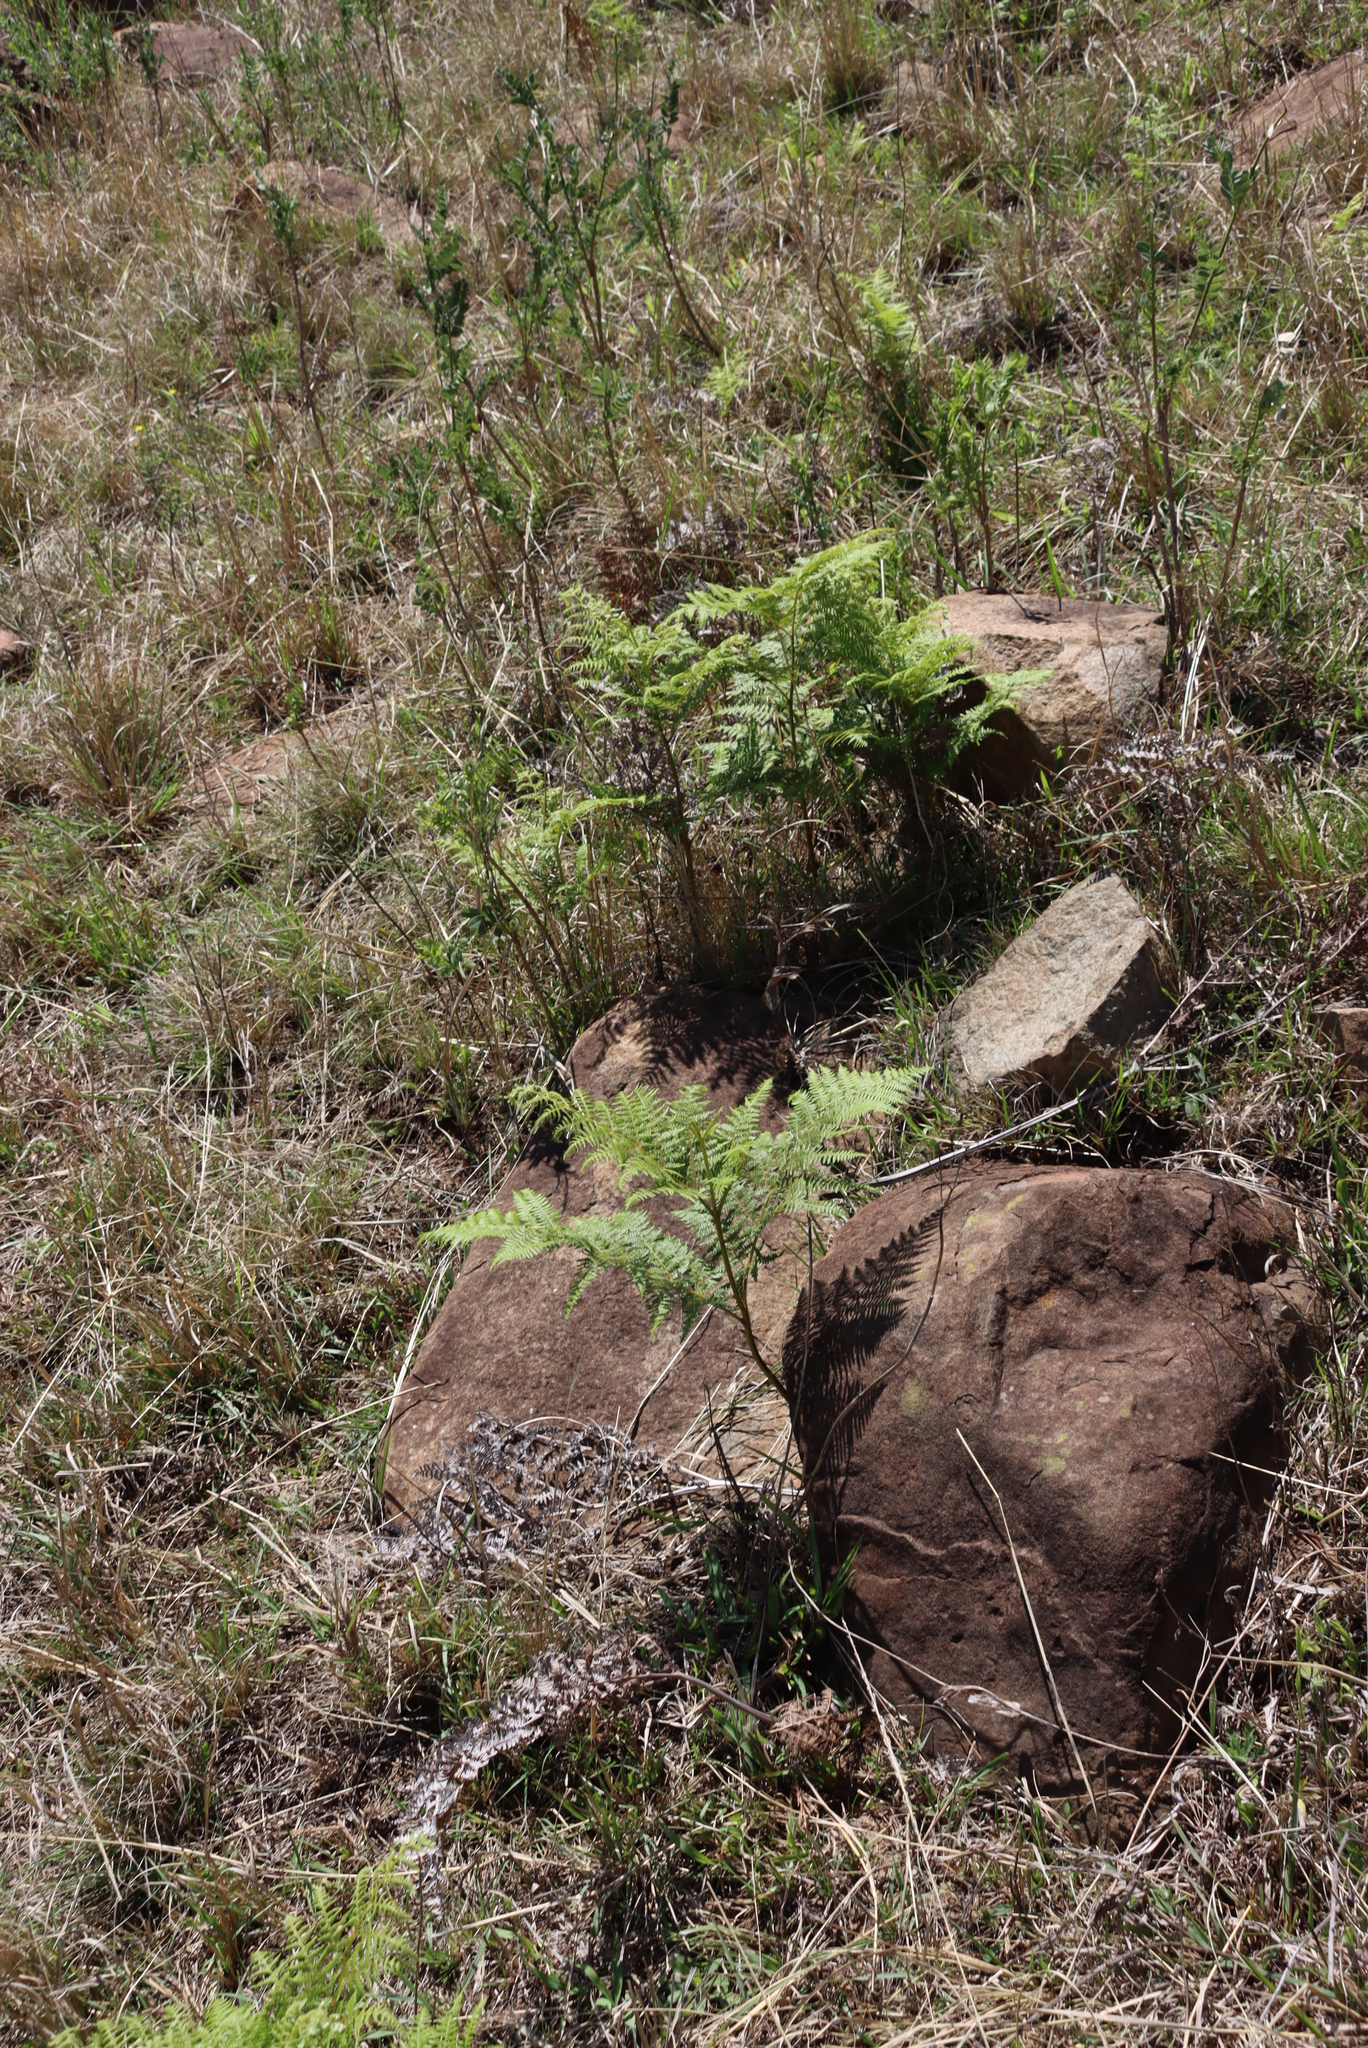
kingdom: Plantae
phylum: Tracheophyta
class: Polypodiopsida
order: Polypodiales
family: Dennstaedtiaceae
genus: Pteridium
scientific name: Pteridium aquilinum
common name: Bracken
